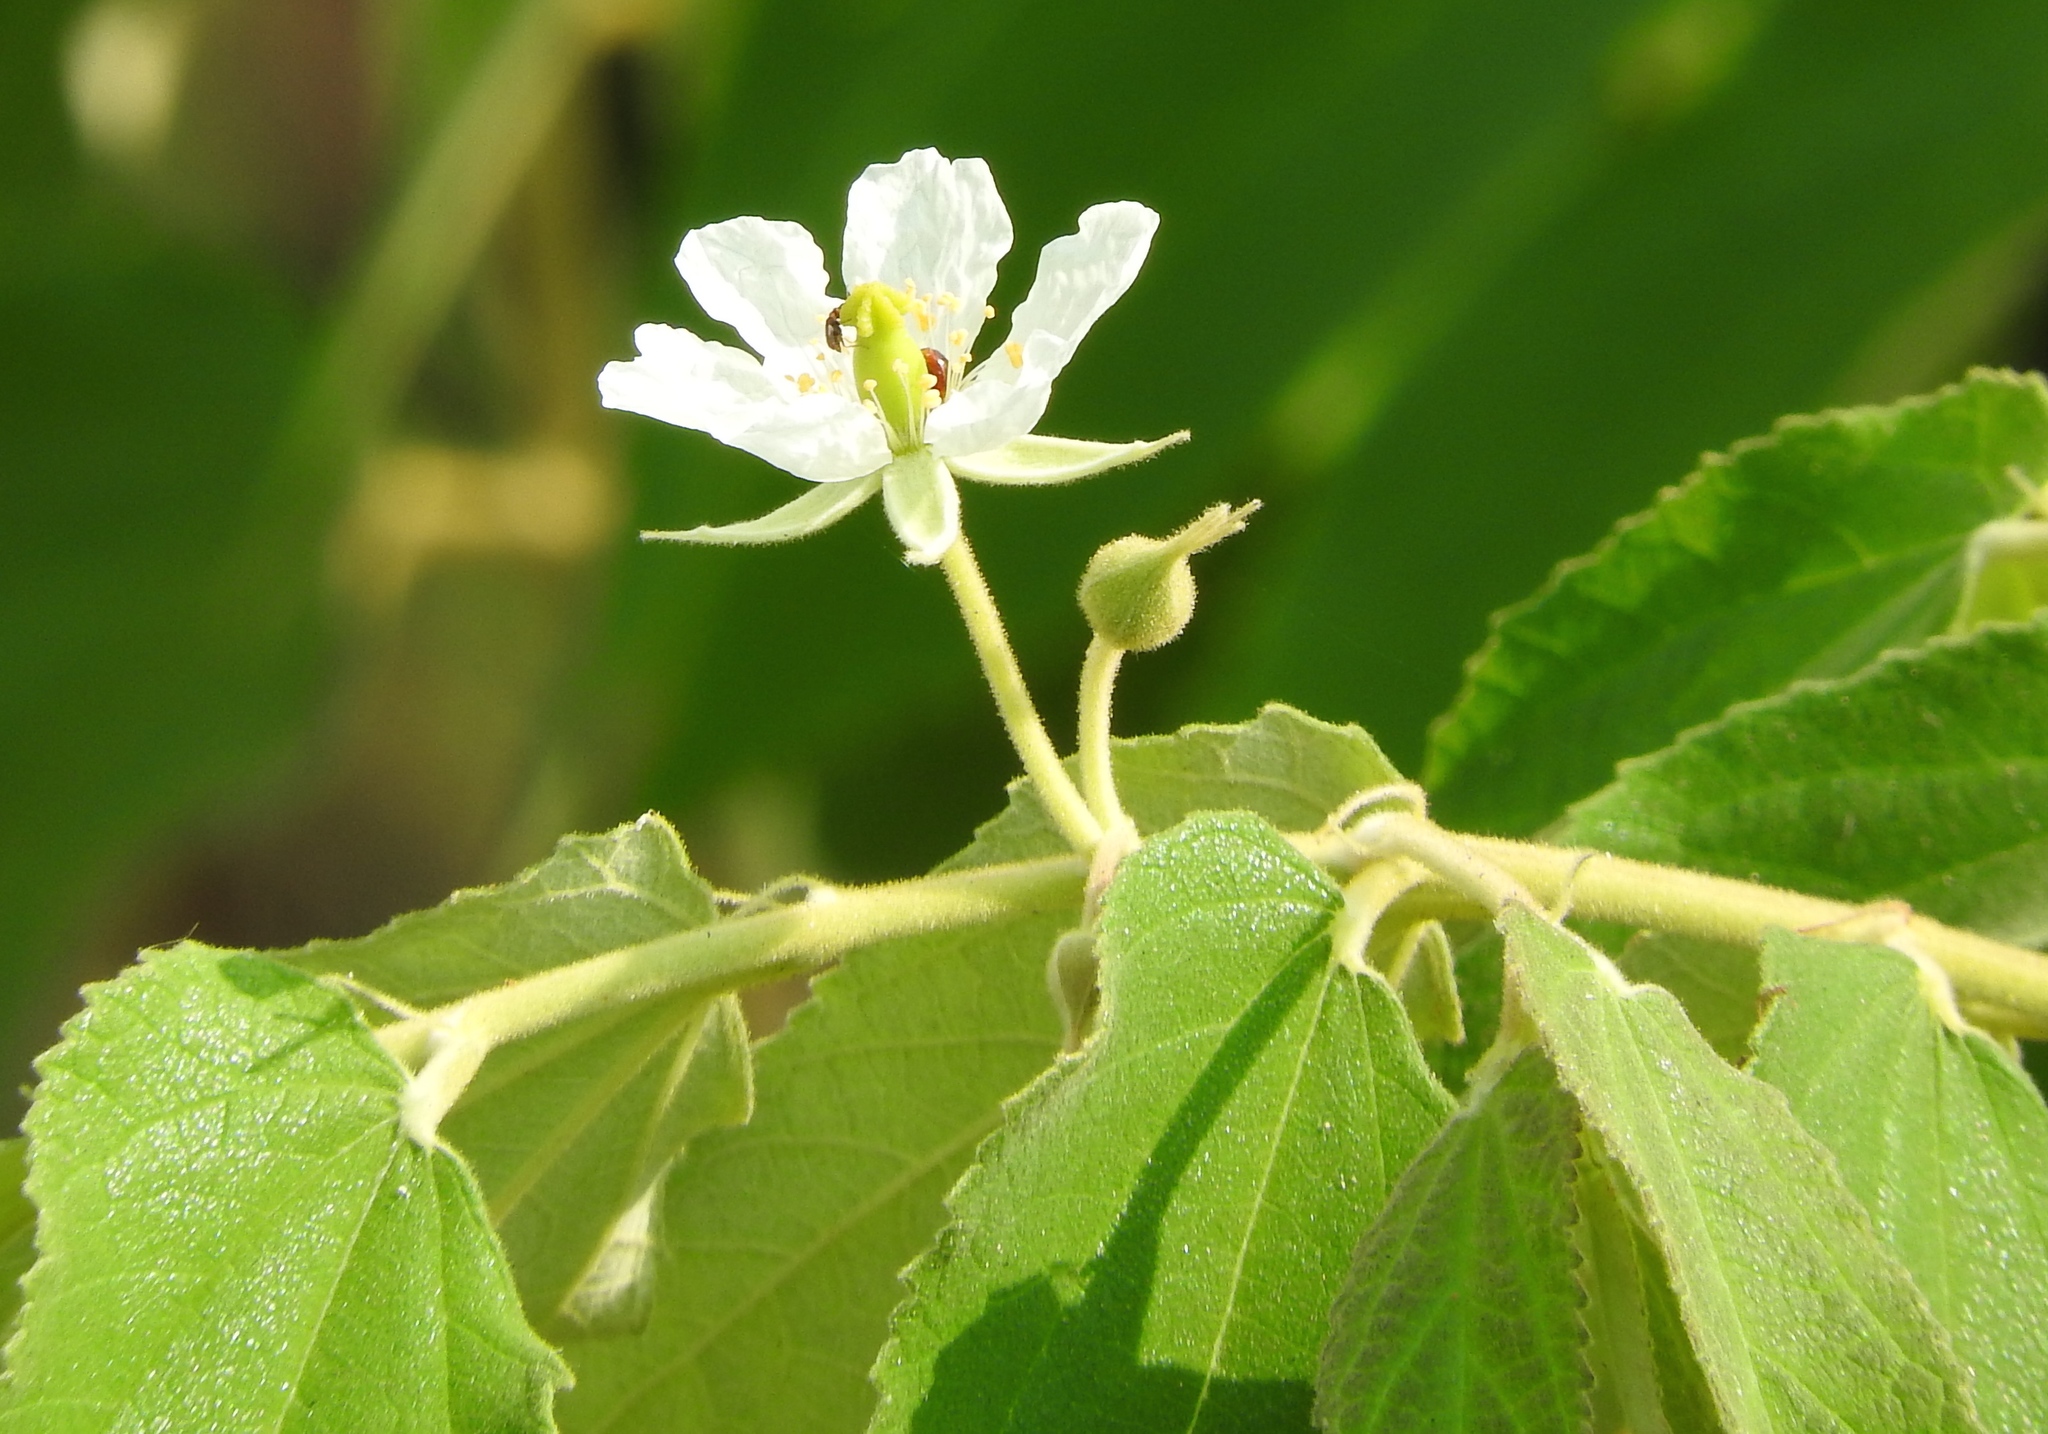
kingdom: Plantae
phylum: Tracheophyta
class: Magnoliopsida
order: Malvales
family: Muntingiaceae
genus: Muntingia
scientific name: Muntingia calabura
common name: Strawberrytree
